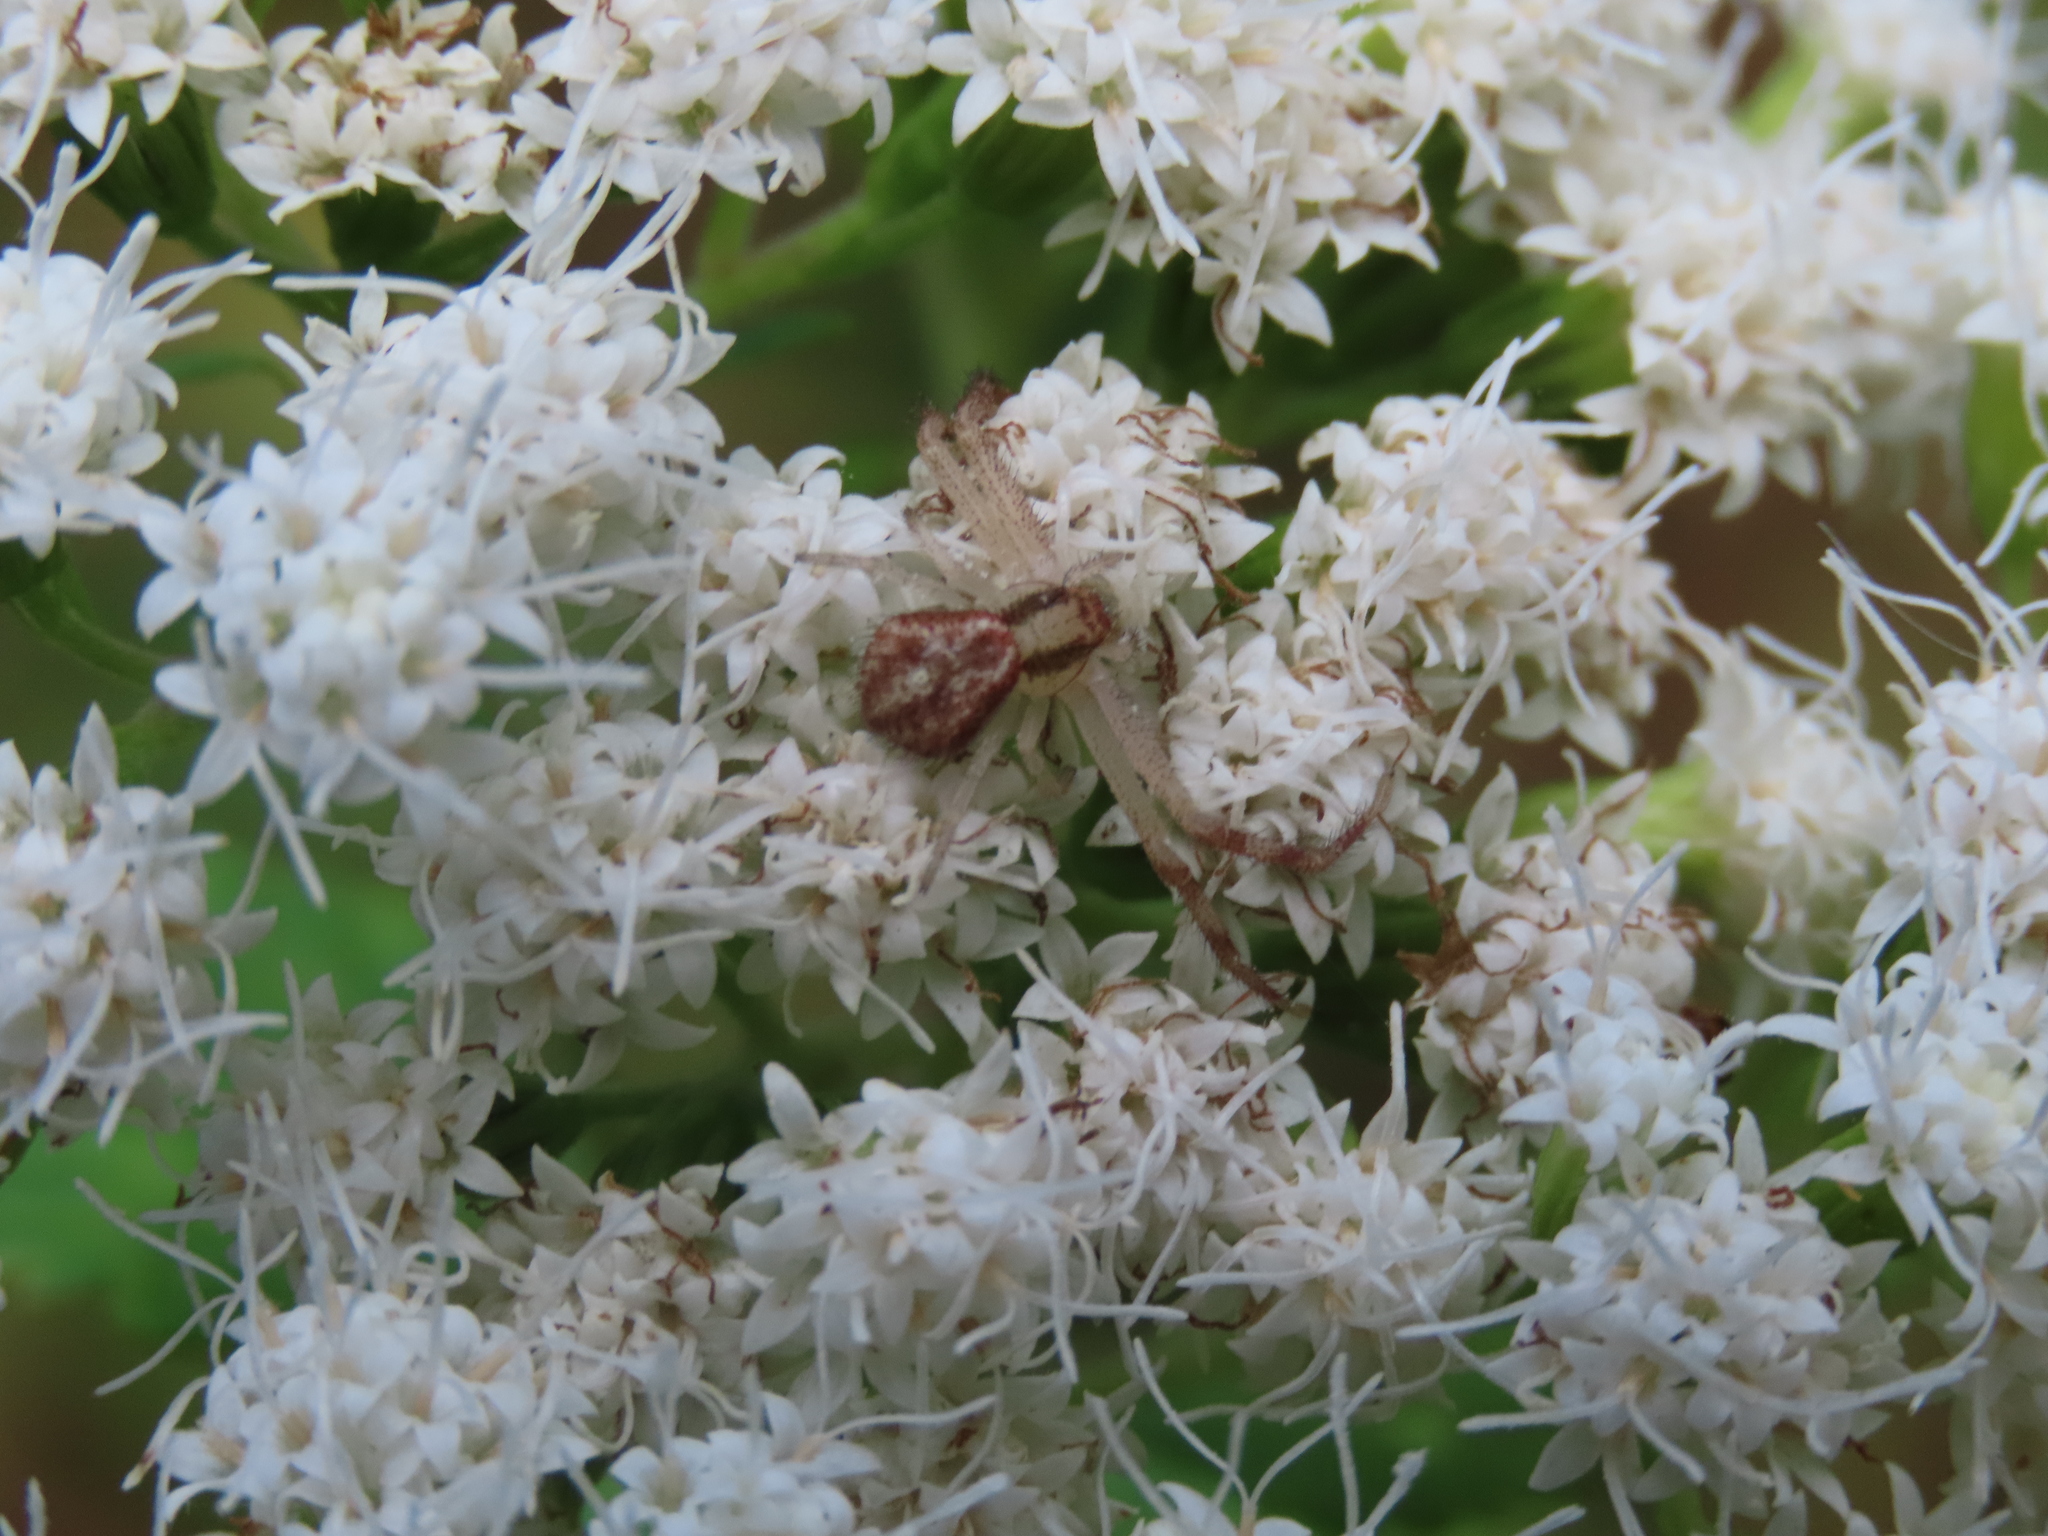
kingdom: Animalia
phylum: Arthropoda
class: Arachnida
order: Araneae
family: Thomisidae
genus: Mecaphesa
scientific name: Mecaphesa asperata
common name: Crab spiders
